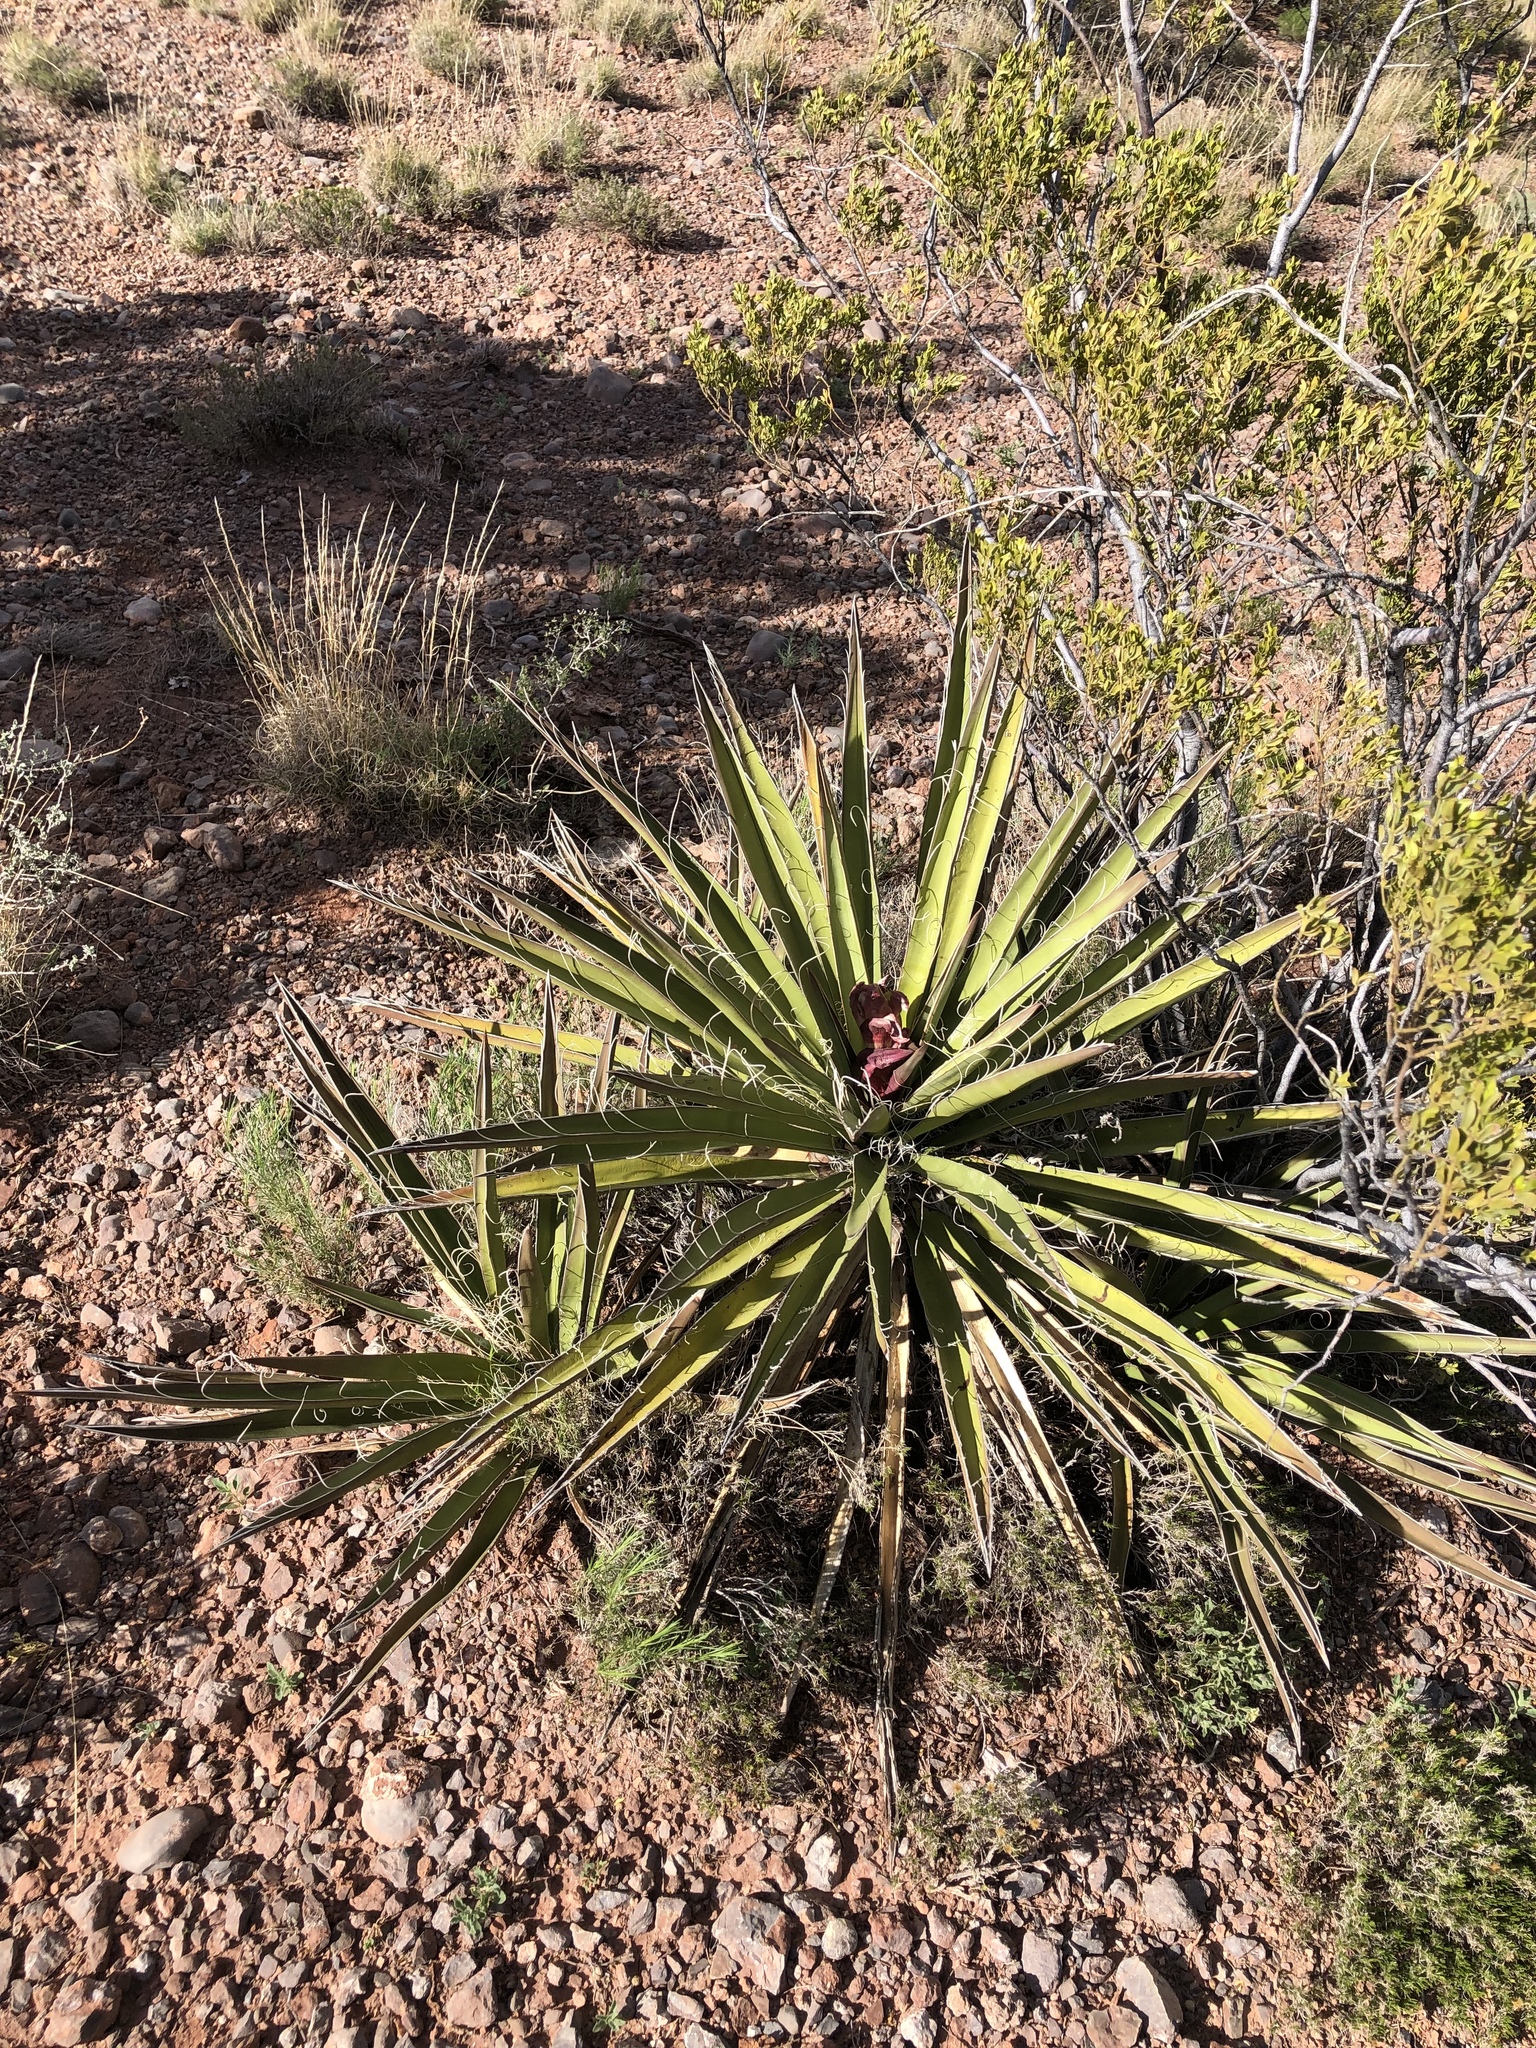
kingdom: Plantae
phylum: Tracheophyta
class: Liliopsida
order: Asparagales
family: Asparagaceae
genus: Yucca
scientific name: Yucca baccata
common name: Banana yucca
